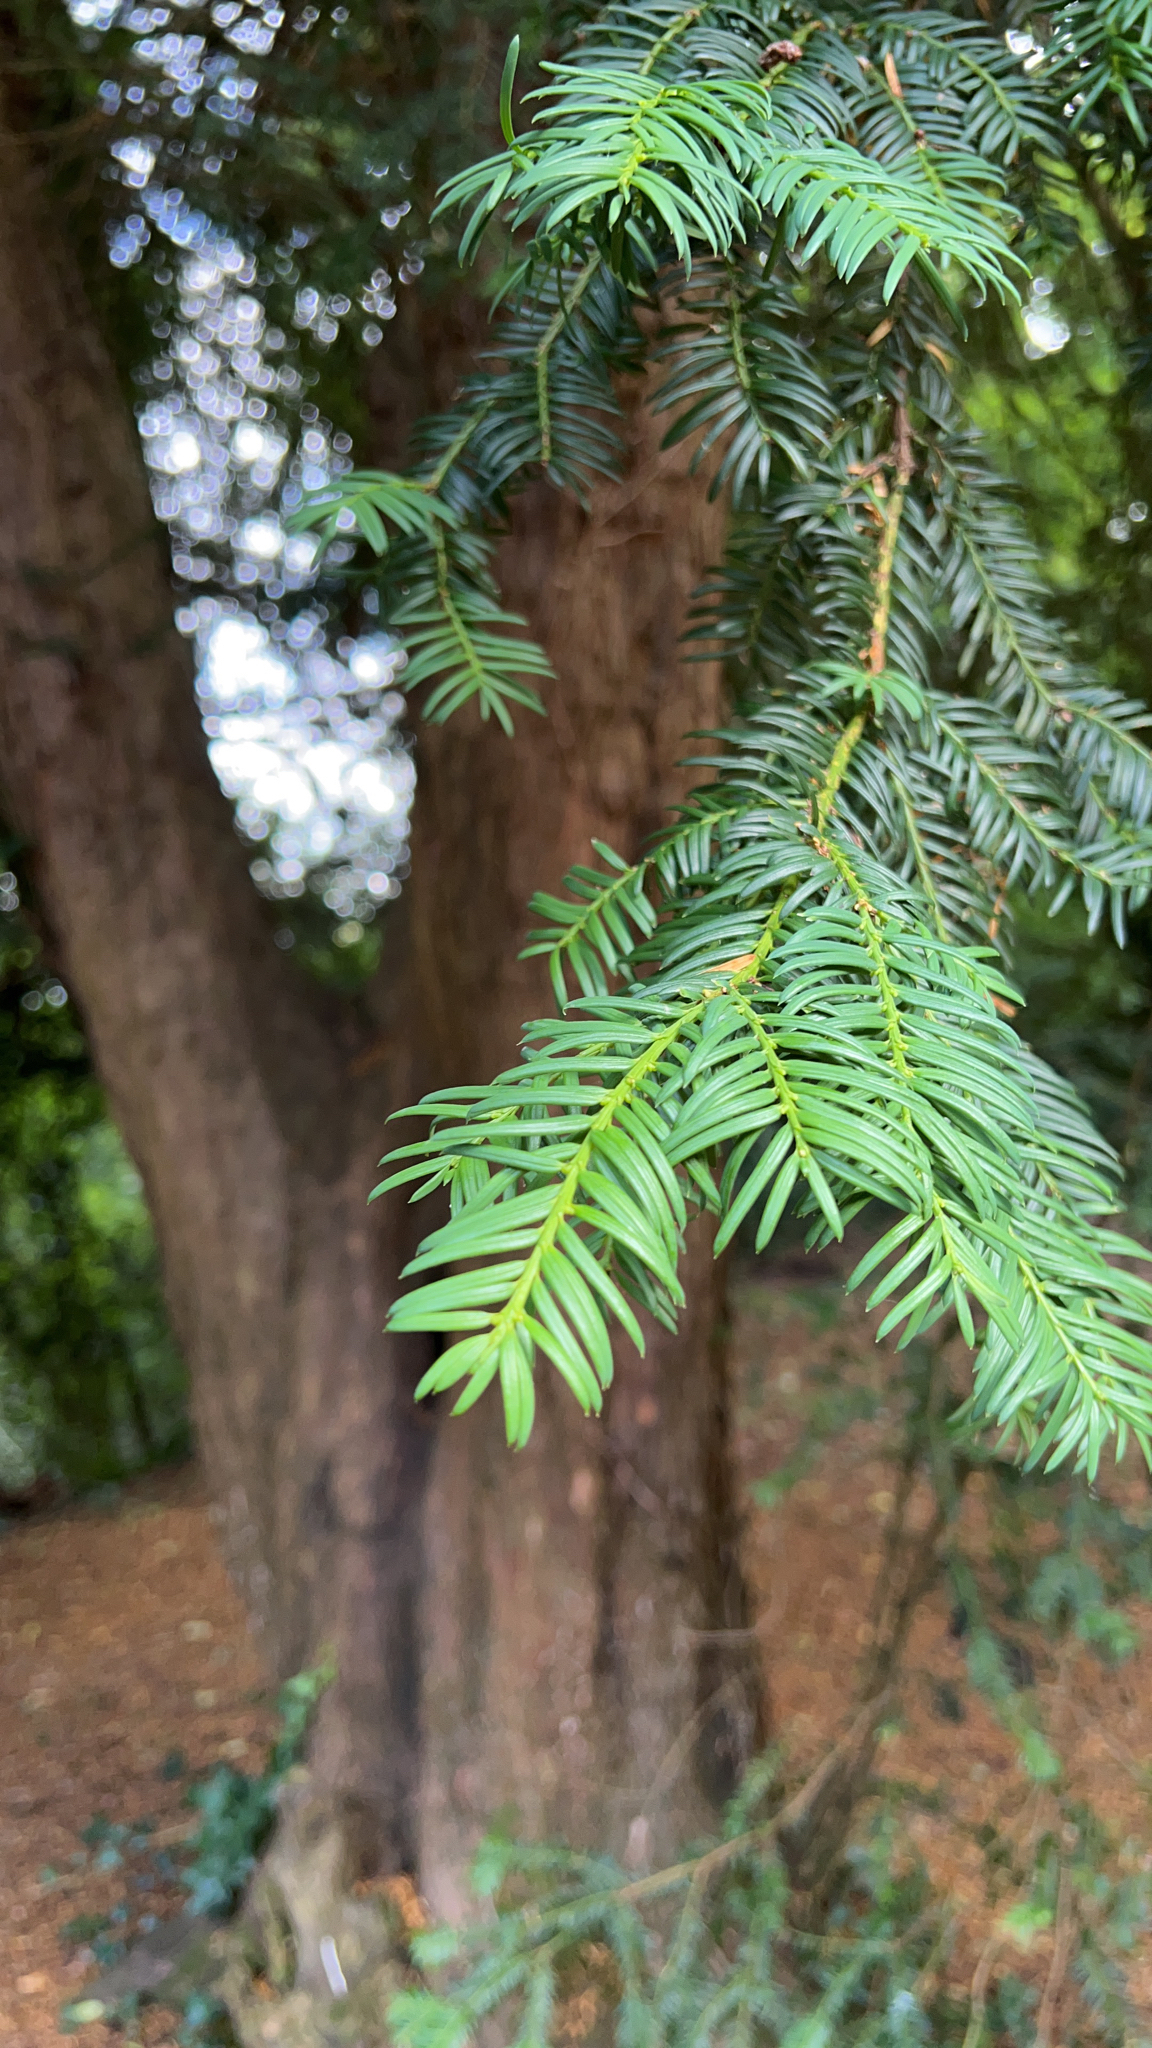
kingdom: Plantae
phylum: Tracheophyta
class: Pinopsida
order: Pinales
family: Taxaceae
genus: Taxus
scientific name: Taxus baccata
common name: Yew
